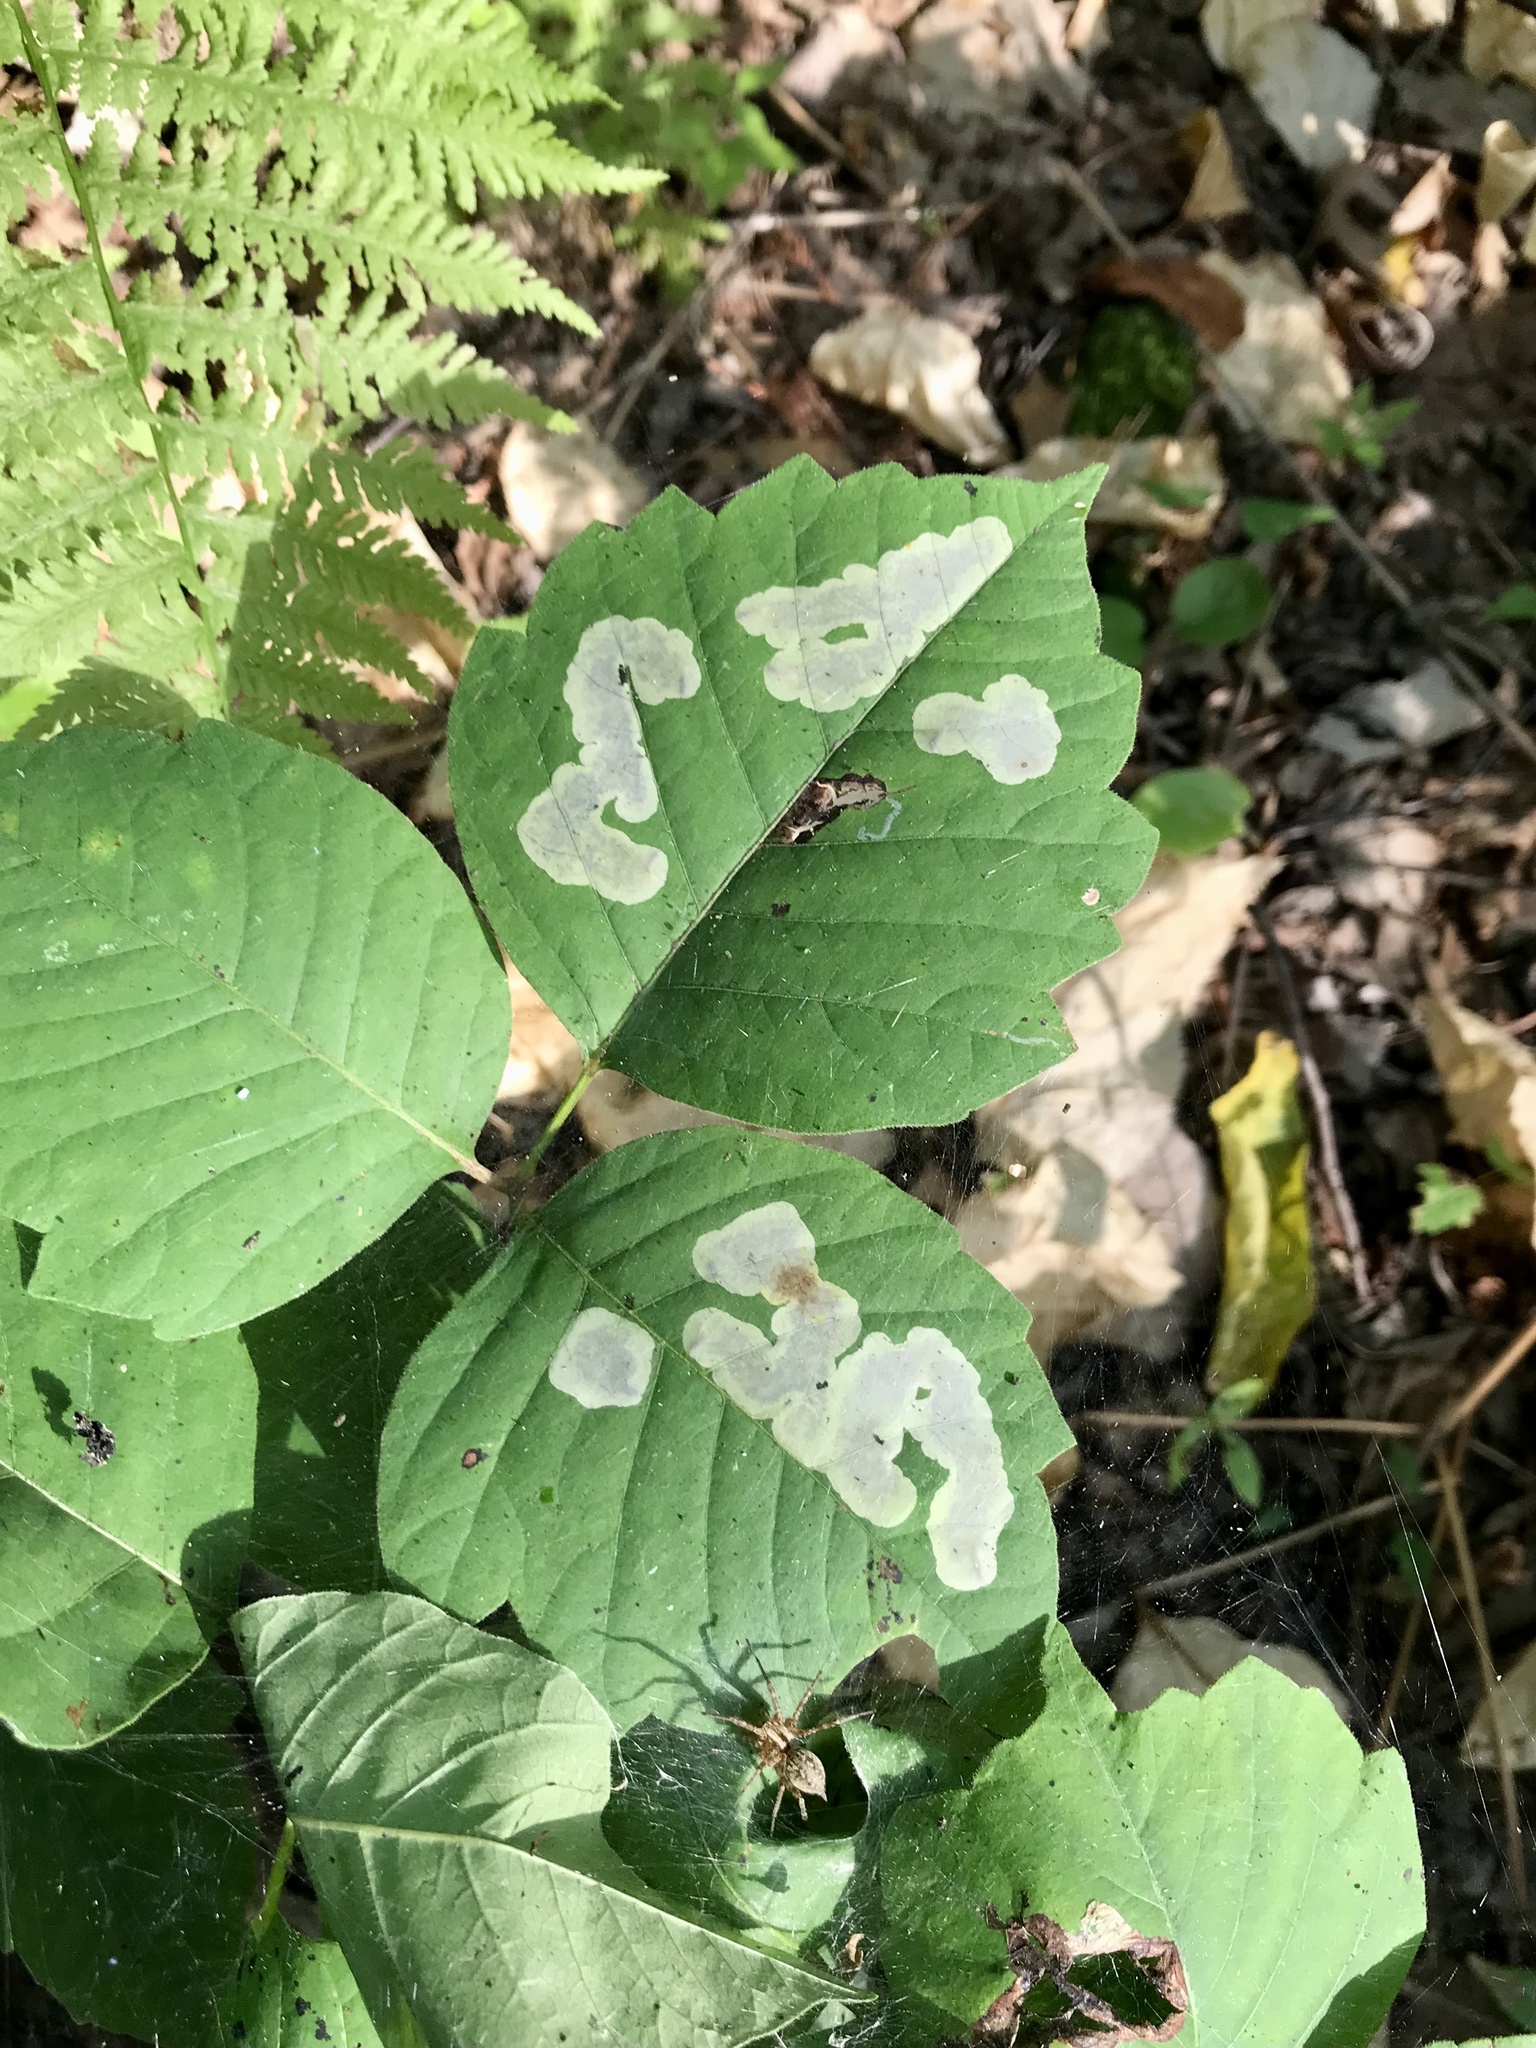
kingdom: Animalia
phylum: Arthropoda
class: Insecta
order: Lepidoptera
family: Gracillariidae
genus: Cameraria
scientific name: Cameraria guttifinitella
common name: Poison ivy leaf-miner moth
